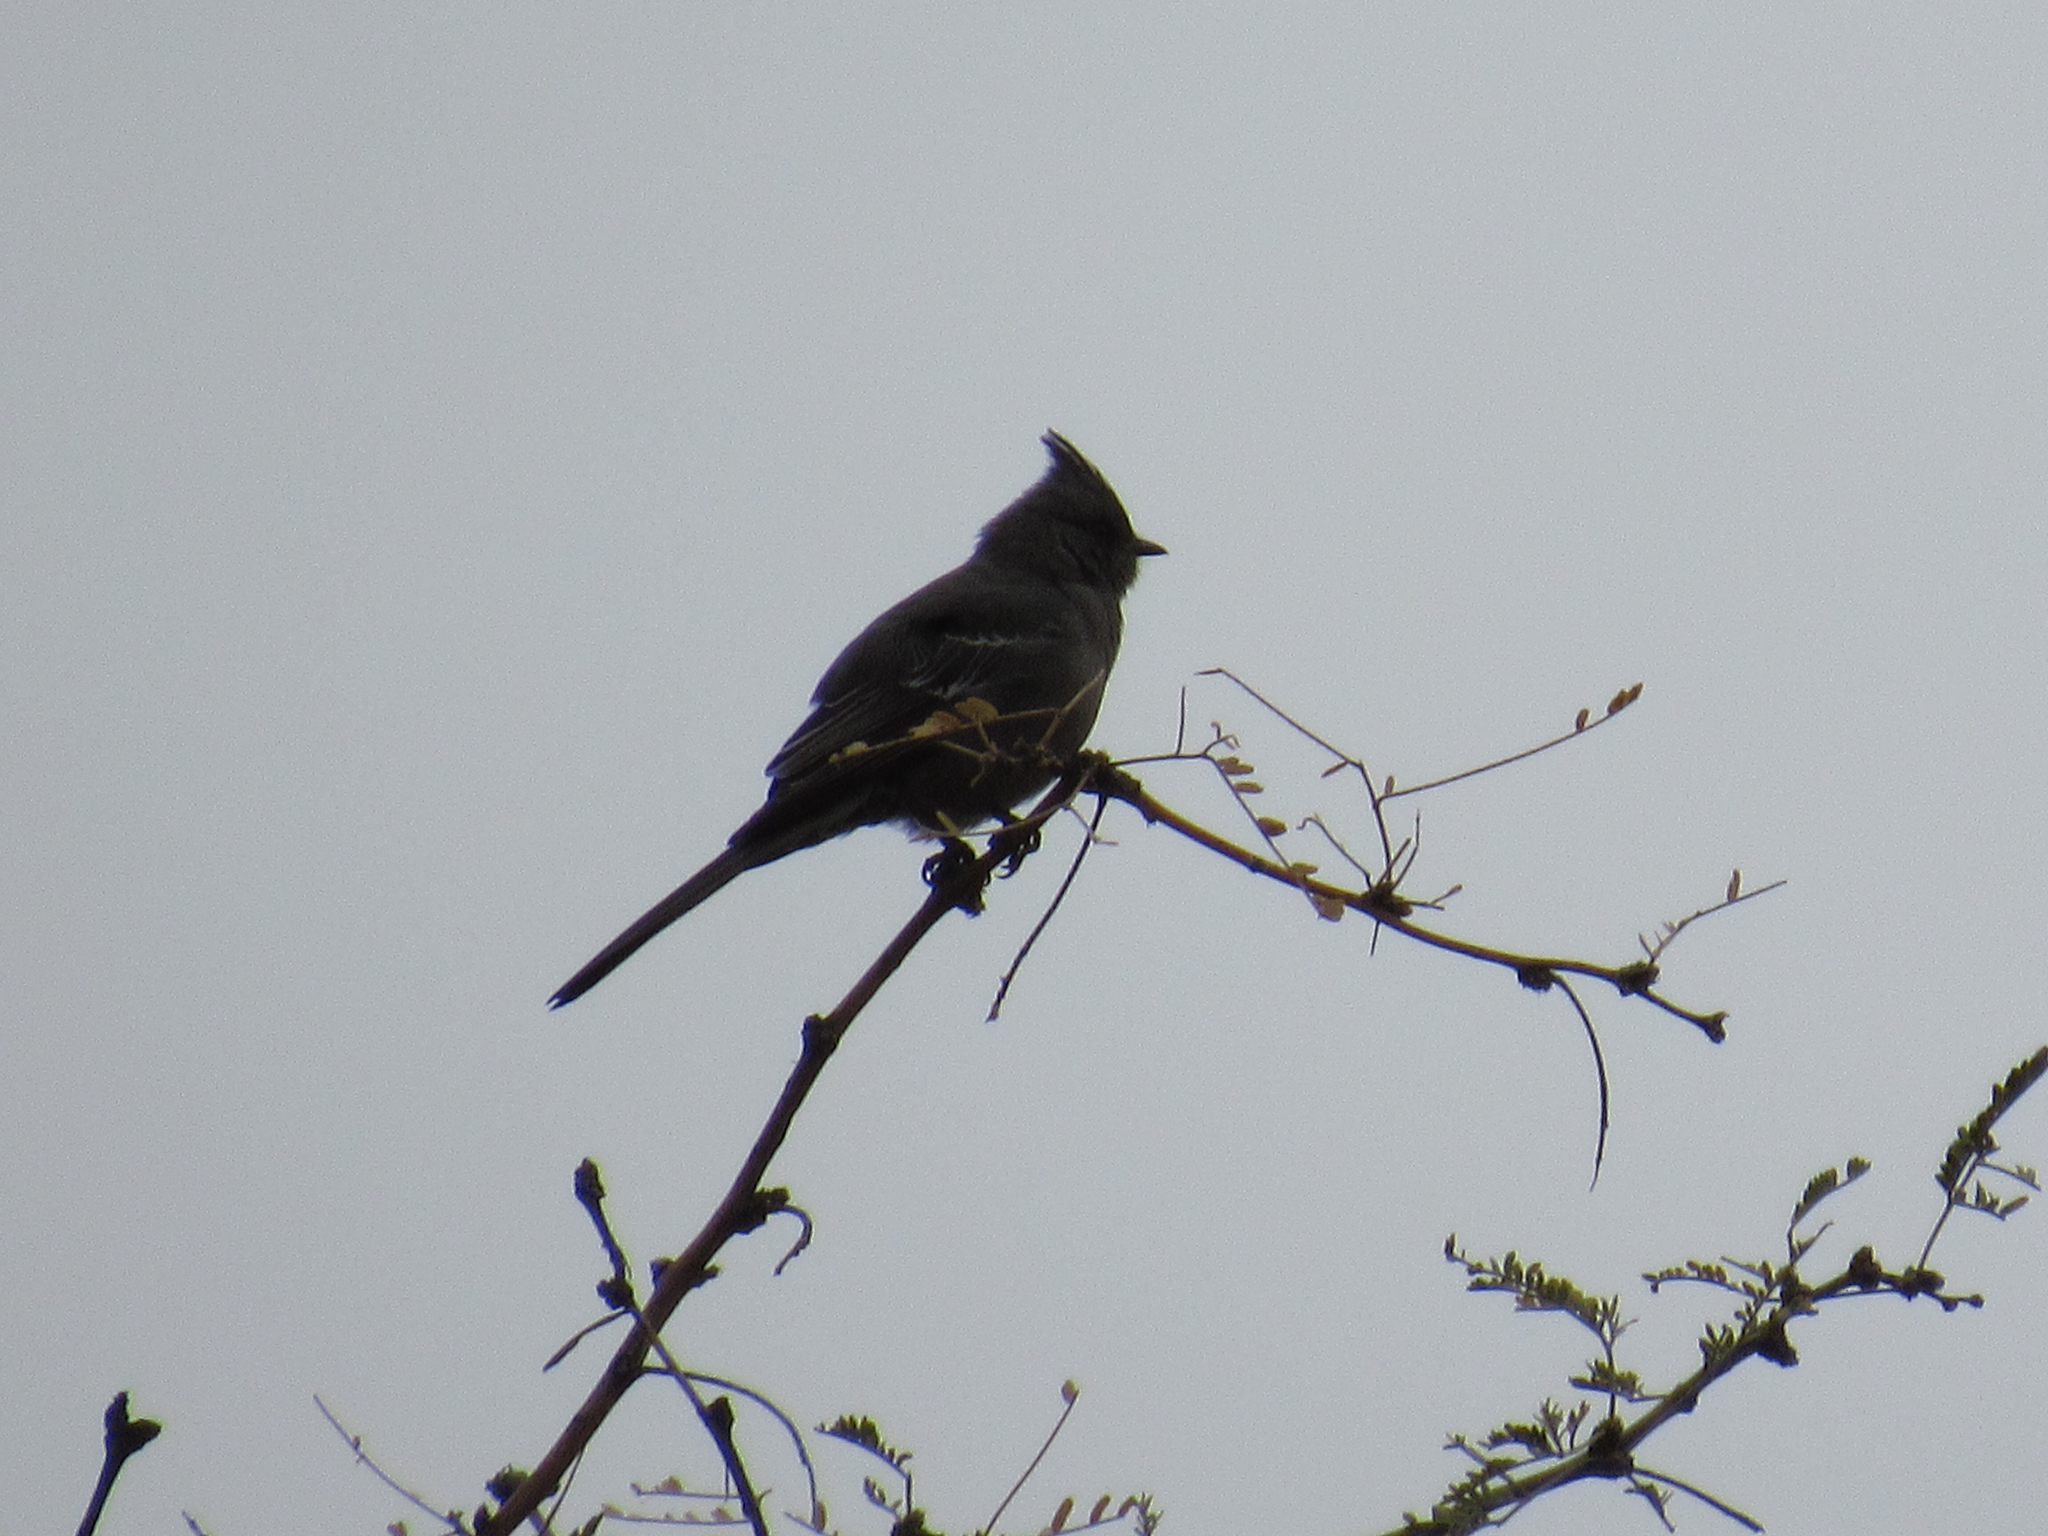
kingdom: Animalia
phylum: Chordata
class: Aves
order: Passeriformes
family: Ptilogonatidae
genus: Phainopepla
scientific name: Phainopepla nitens
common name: Phainopepla
